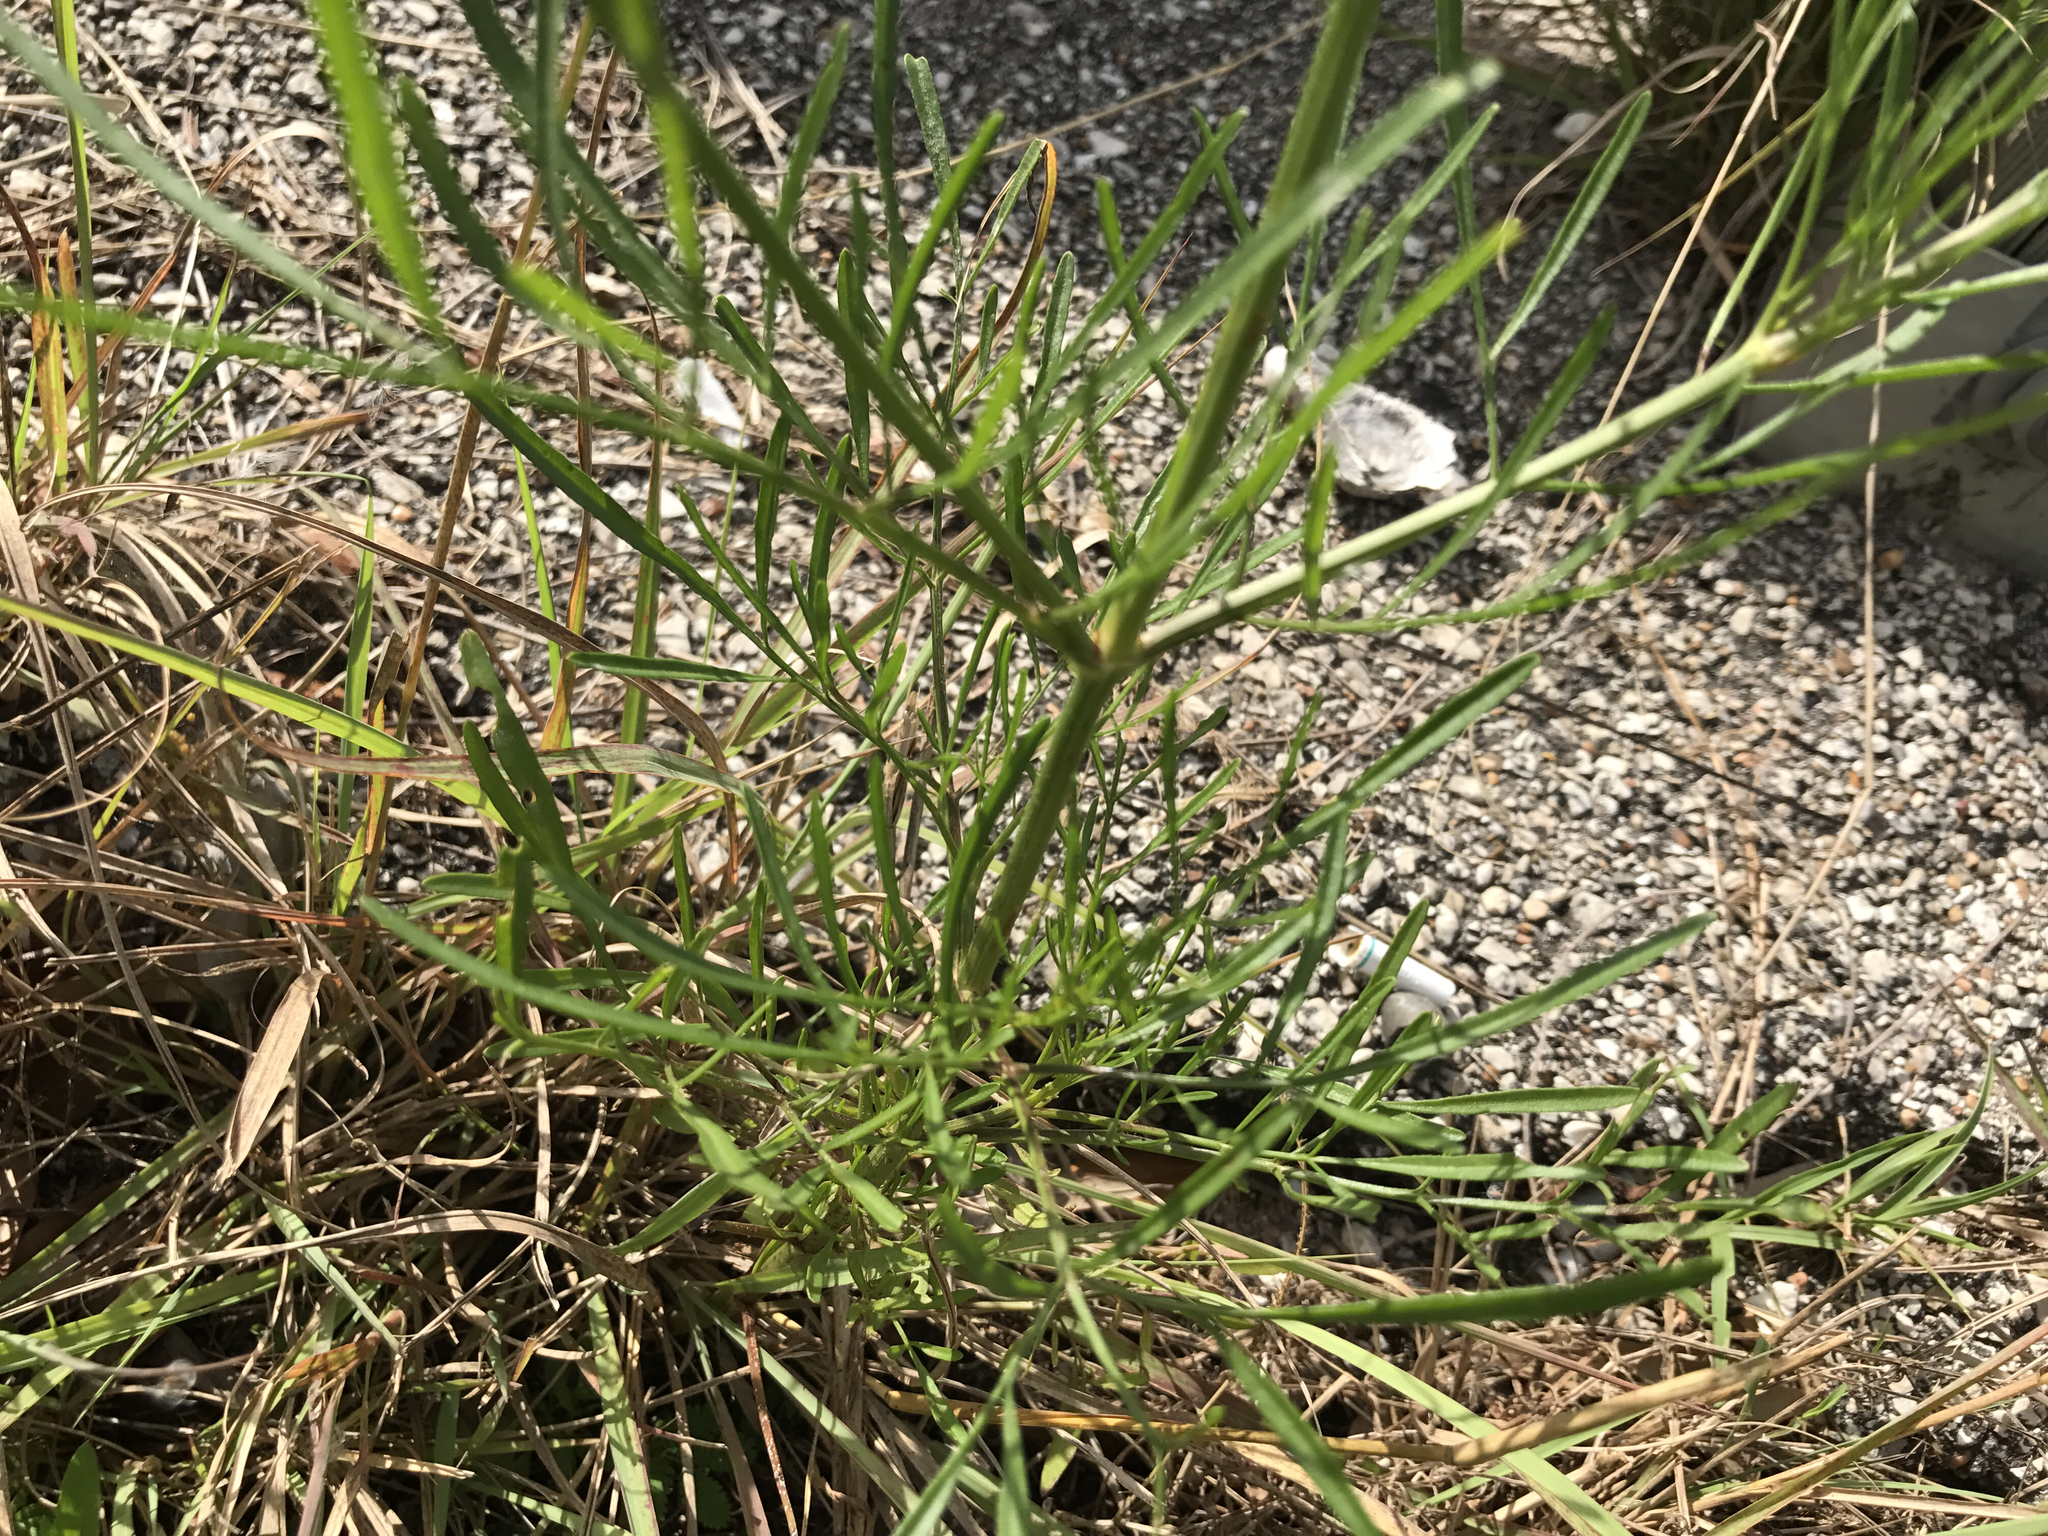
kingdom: Plantae
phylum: Tracheophyta
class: Magnoliopsida
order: Asterales
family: Asteraceae
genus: Coreopsis
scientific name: Coreopsis tinctoria
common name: Garden tickseed
